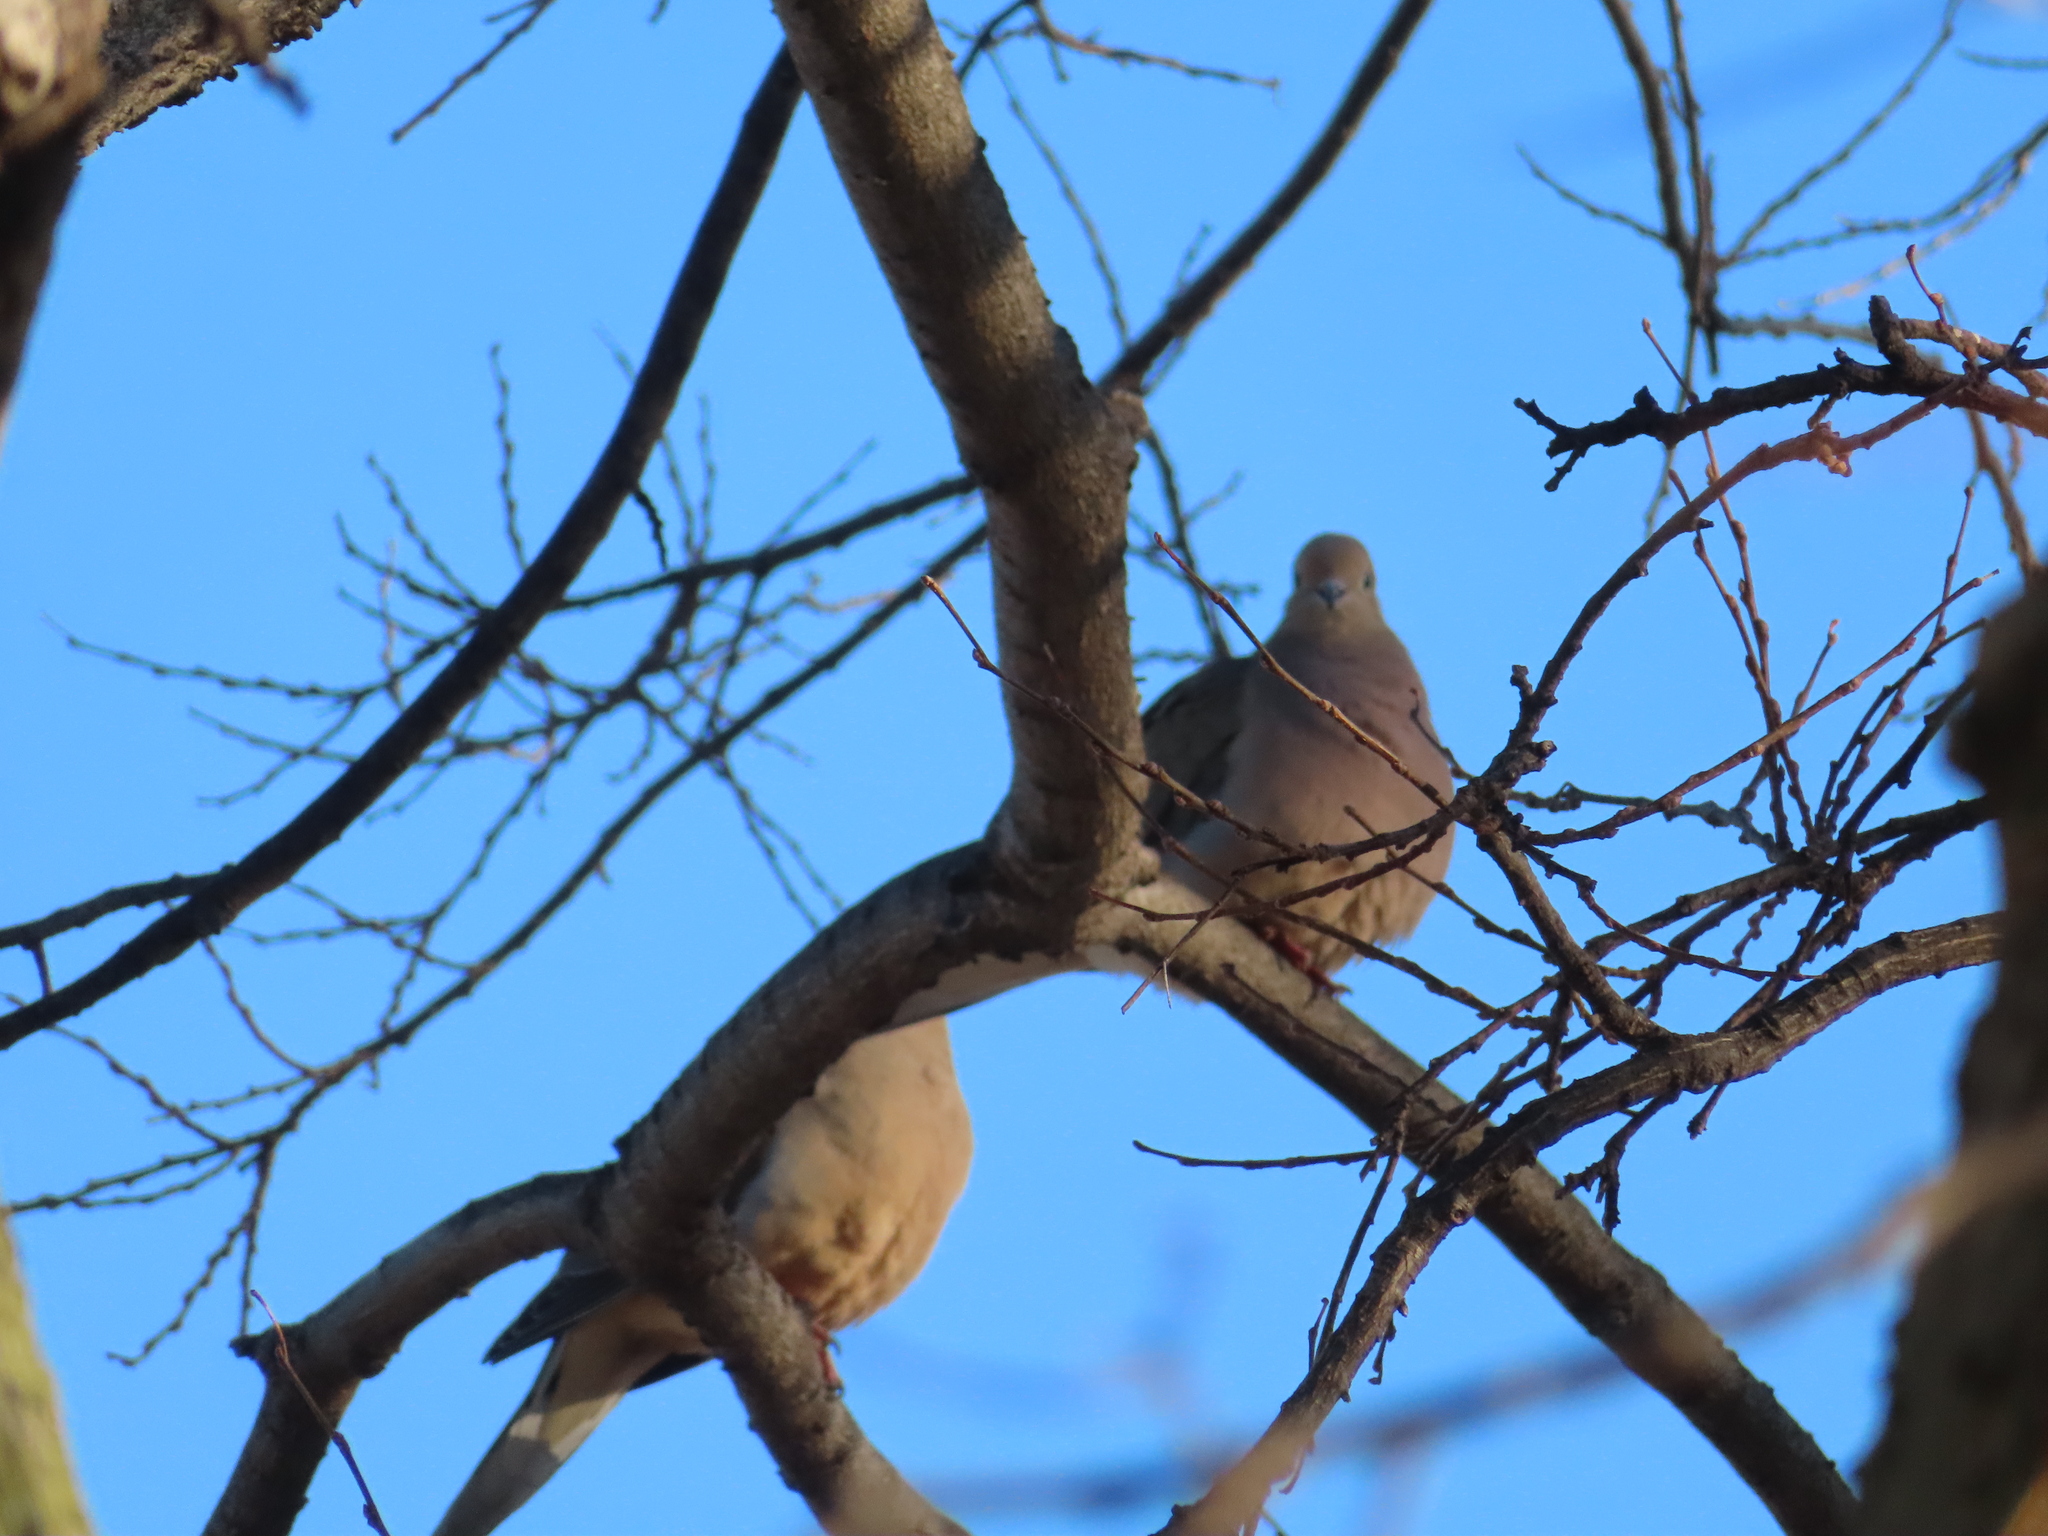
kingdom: Animalia
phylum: Chordata
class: Aves
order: Columbiformes
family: Columbidae
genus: Zenaida
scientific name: Zenaida macroura
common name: Mourning dove
